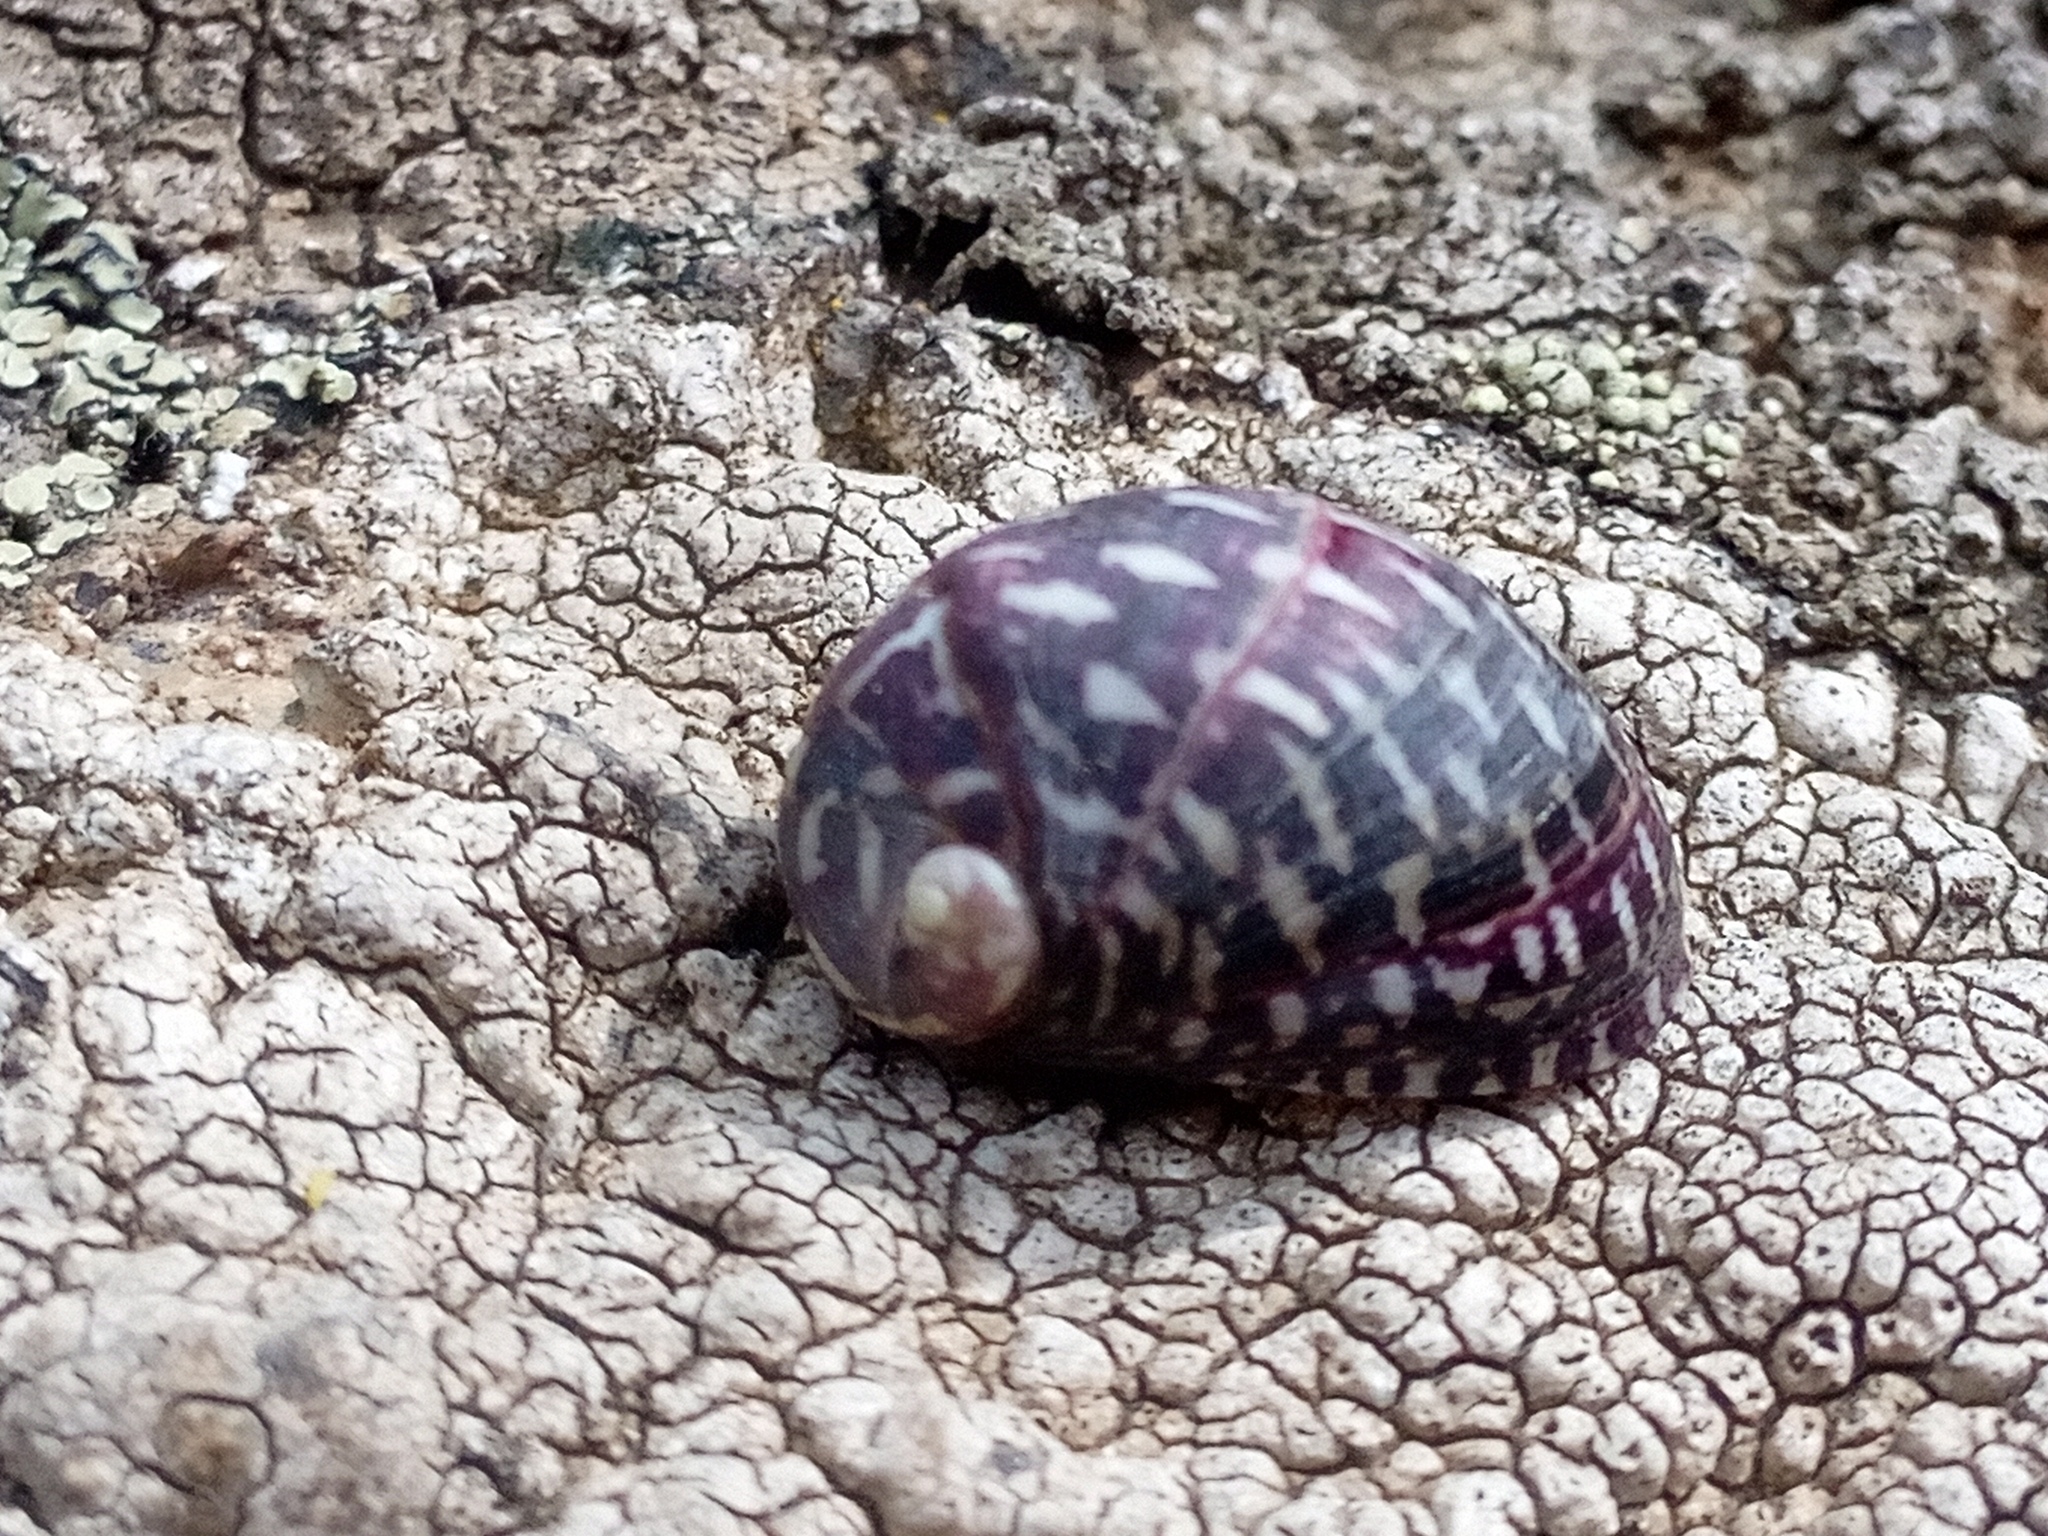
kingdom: Animalia
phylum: Mollusca
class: Gastropoda
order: Cycloneritida
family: Neritidae
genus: Theodoxus
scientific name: Theodoxus fluviatilis
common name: River nerite
